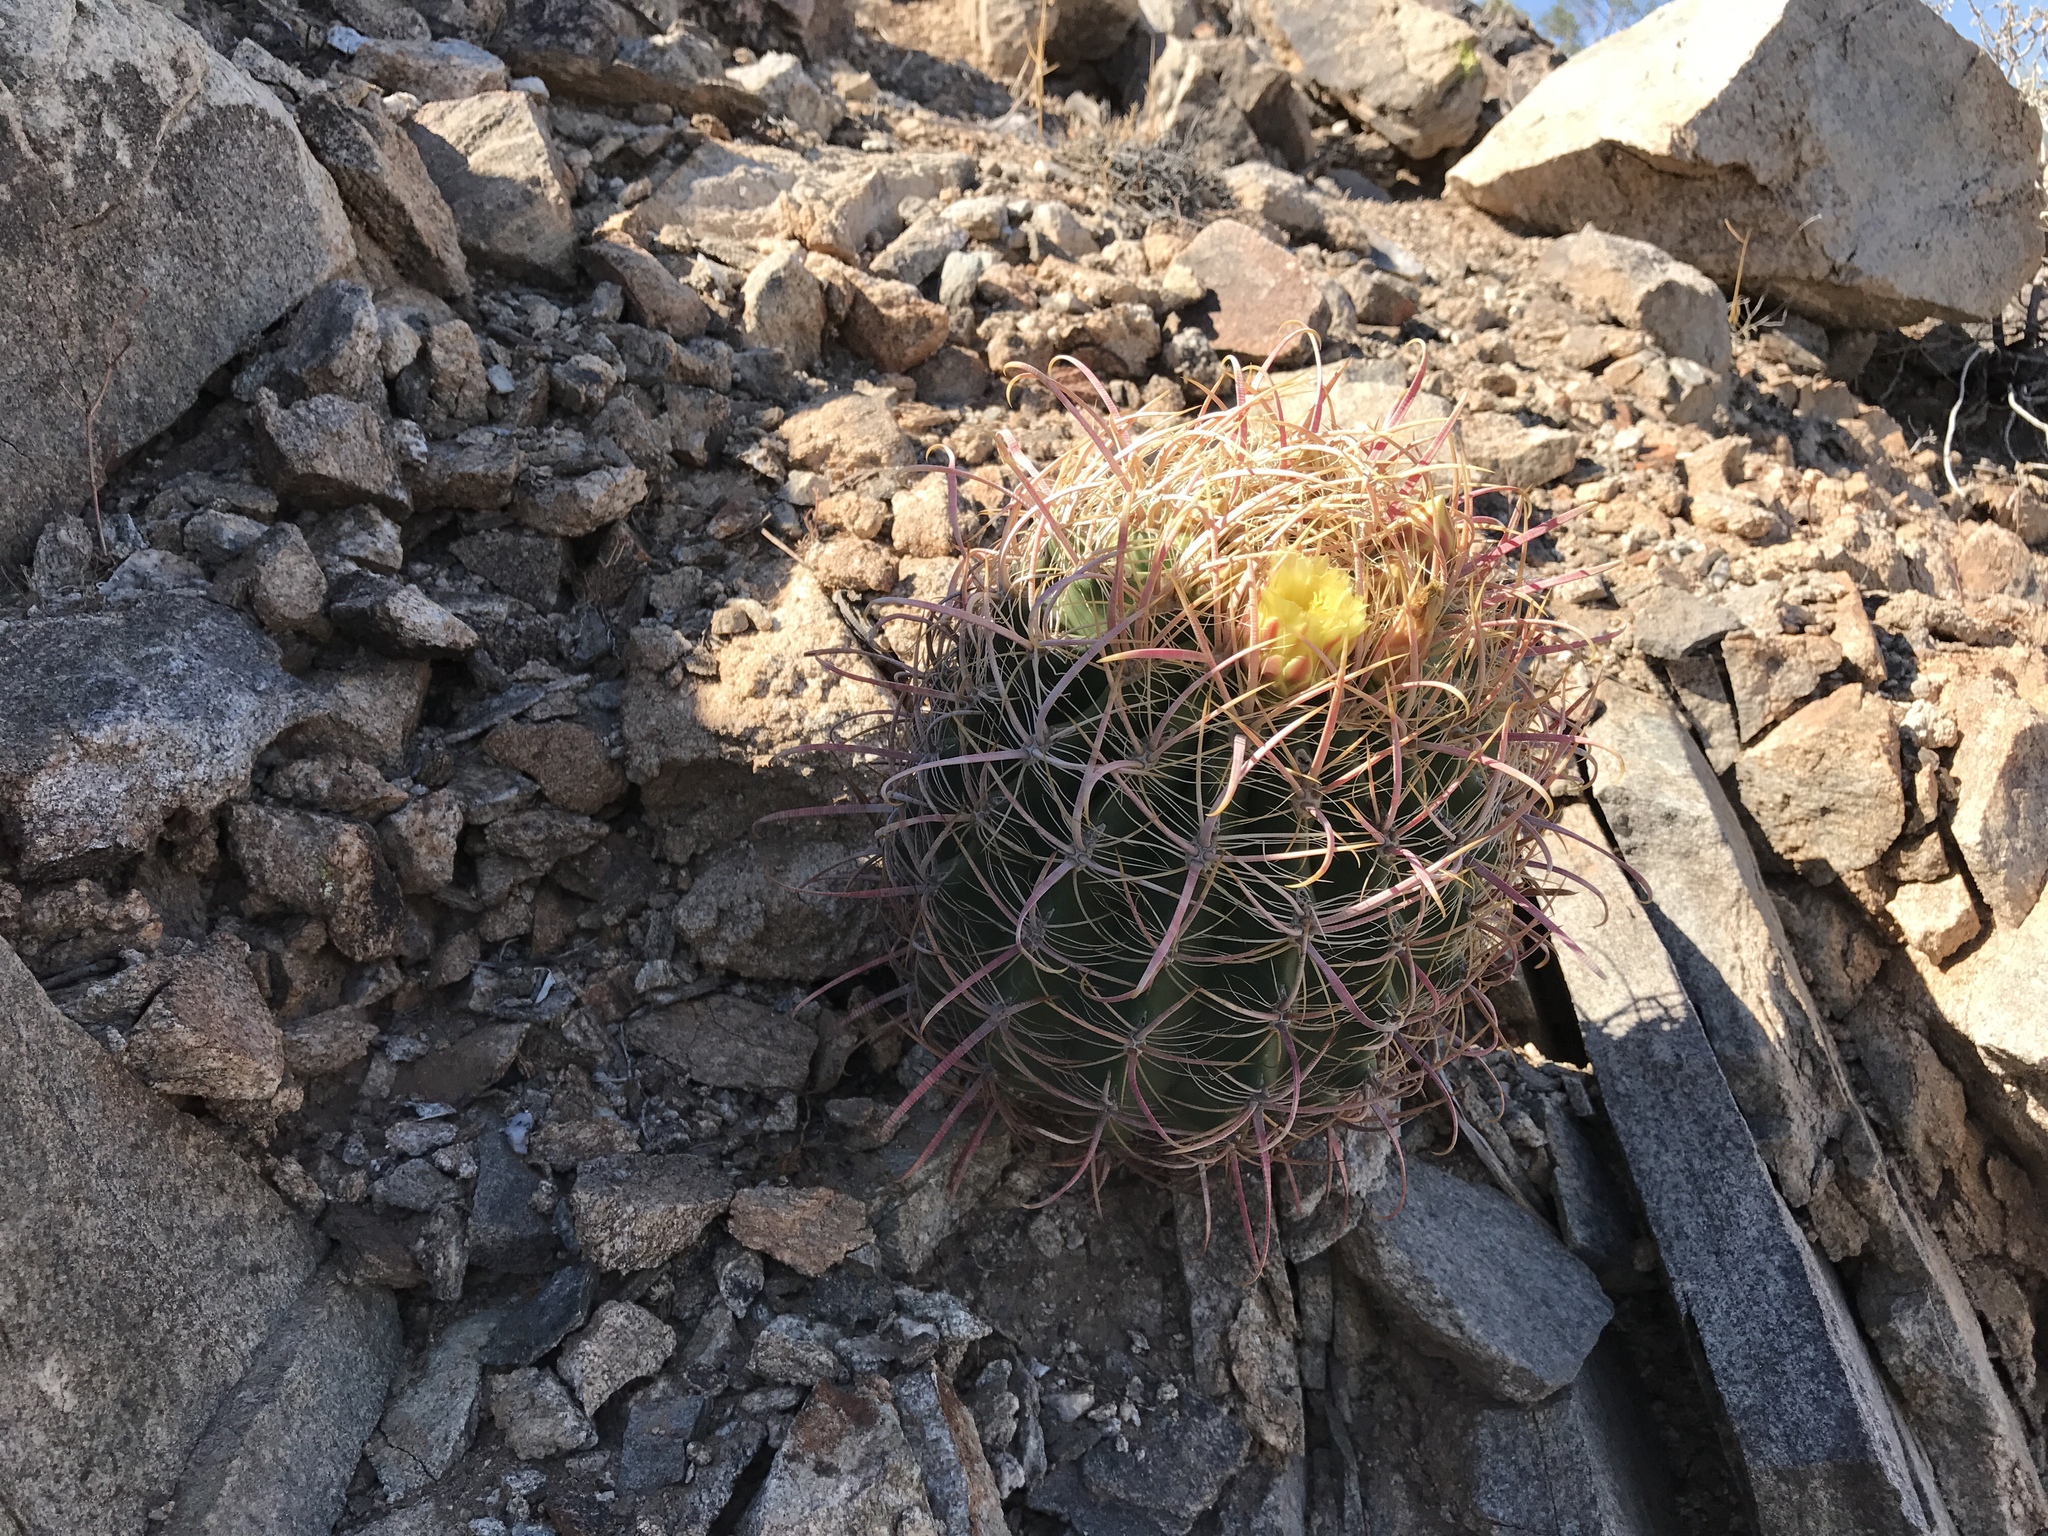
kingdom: Plantae
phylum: Tracheophyta
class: Magnoliopsida
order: Caryophyllales
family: Cactaceae
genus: Ferocactus
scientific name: Ferocactus cylindraceus
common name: California barrel cactus
